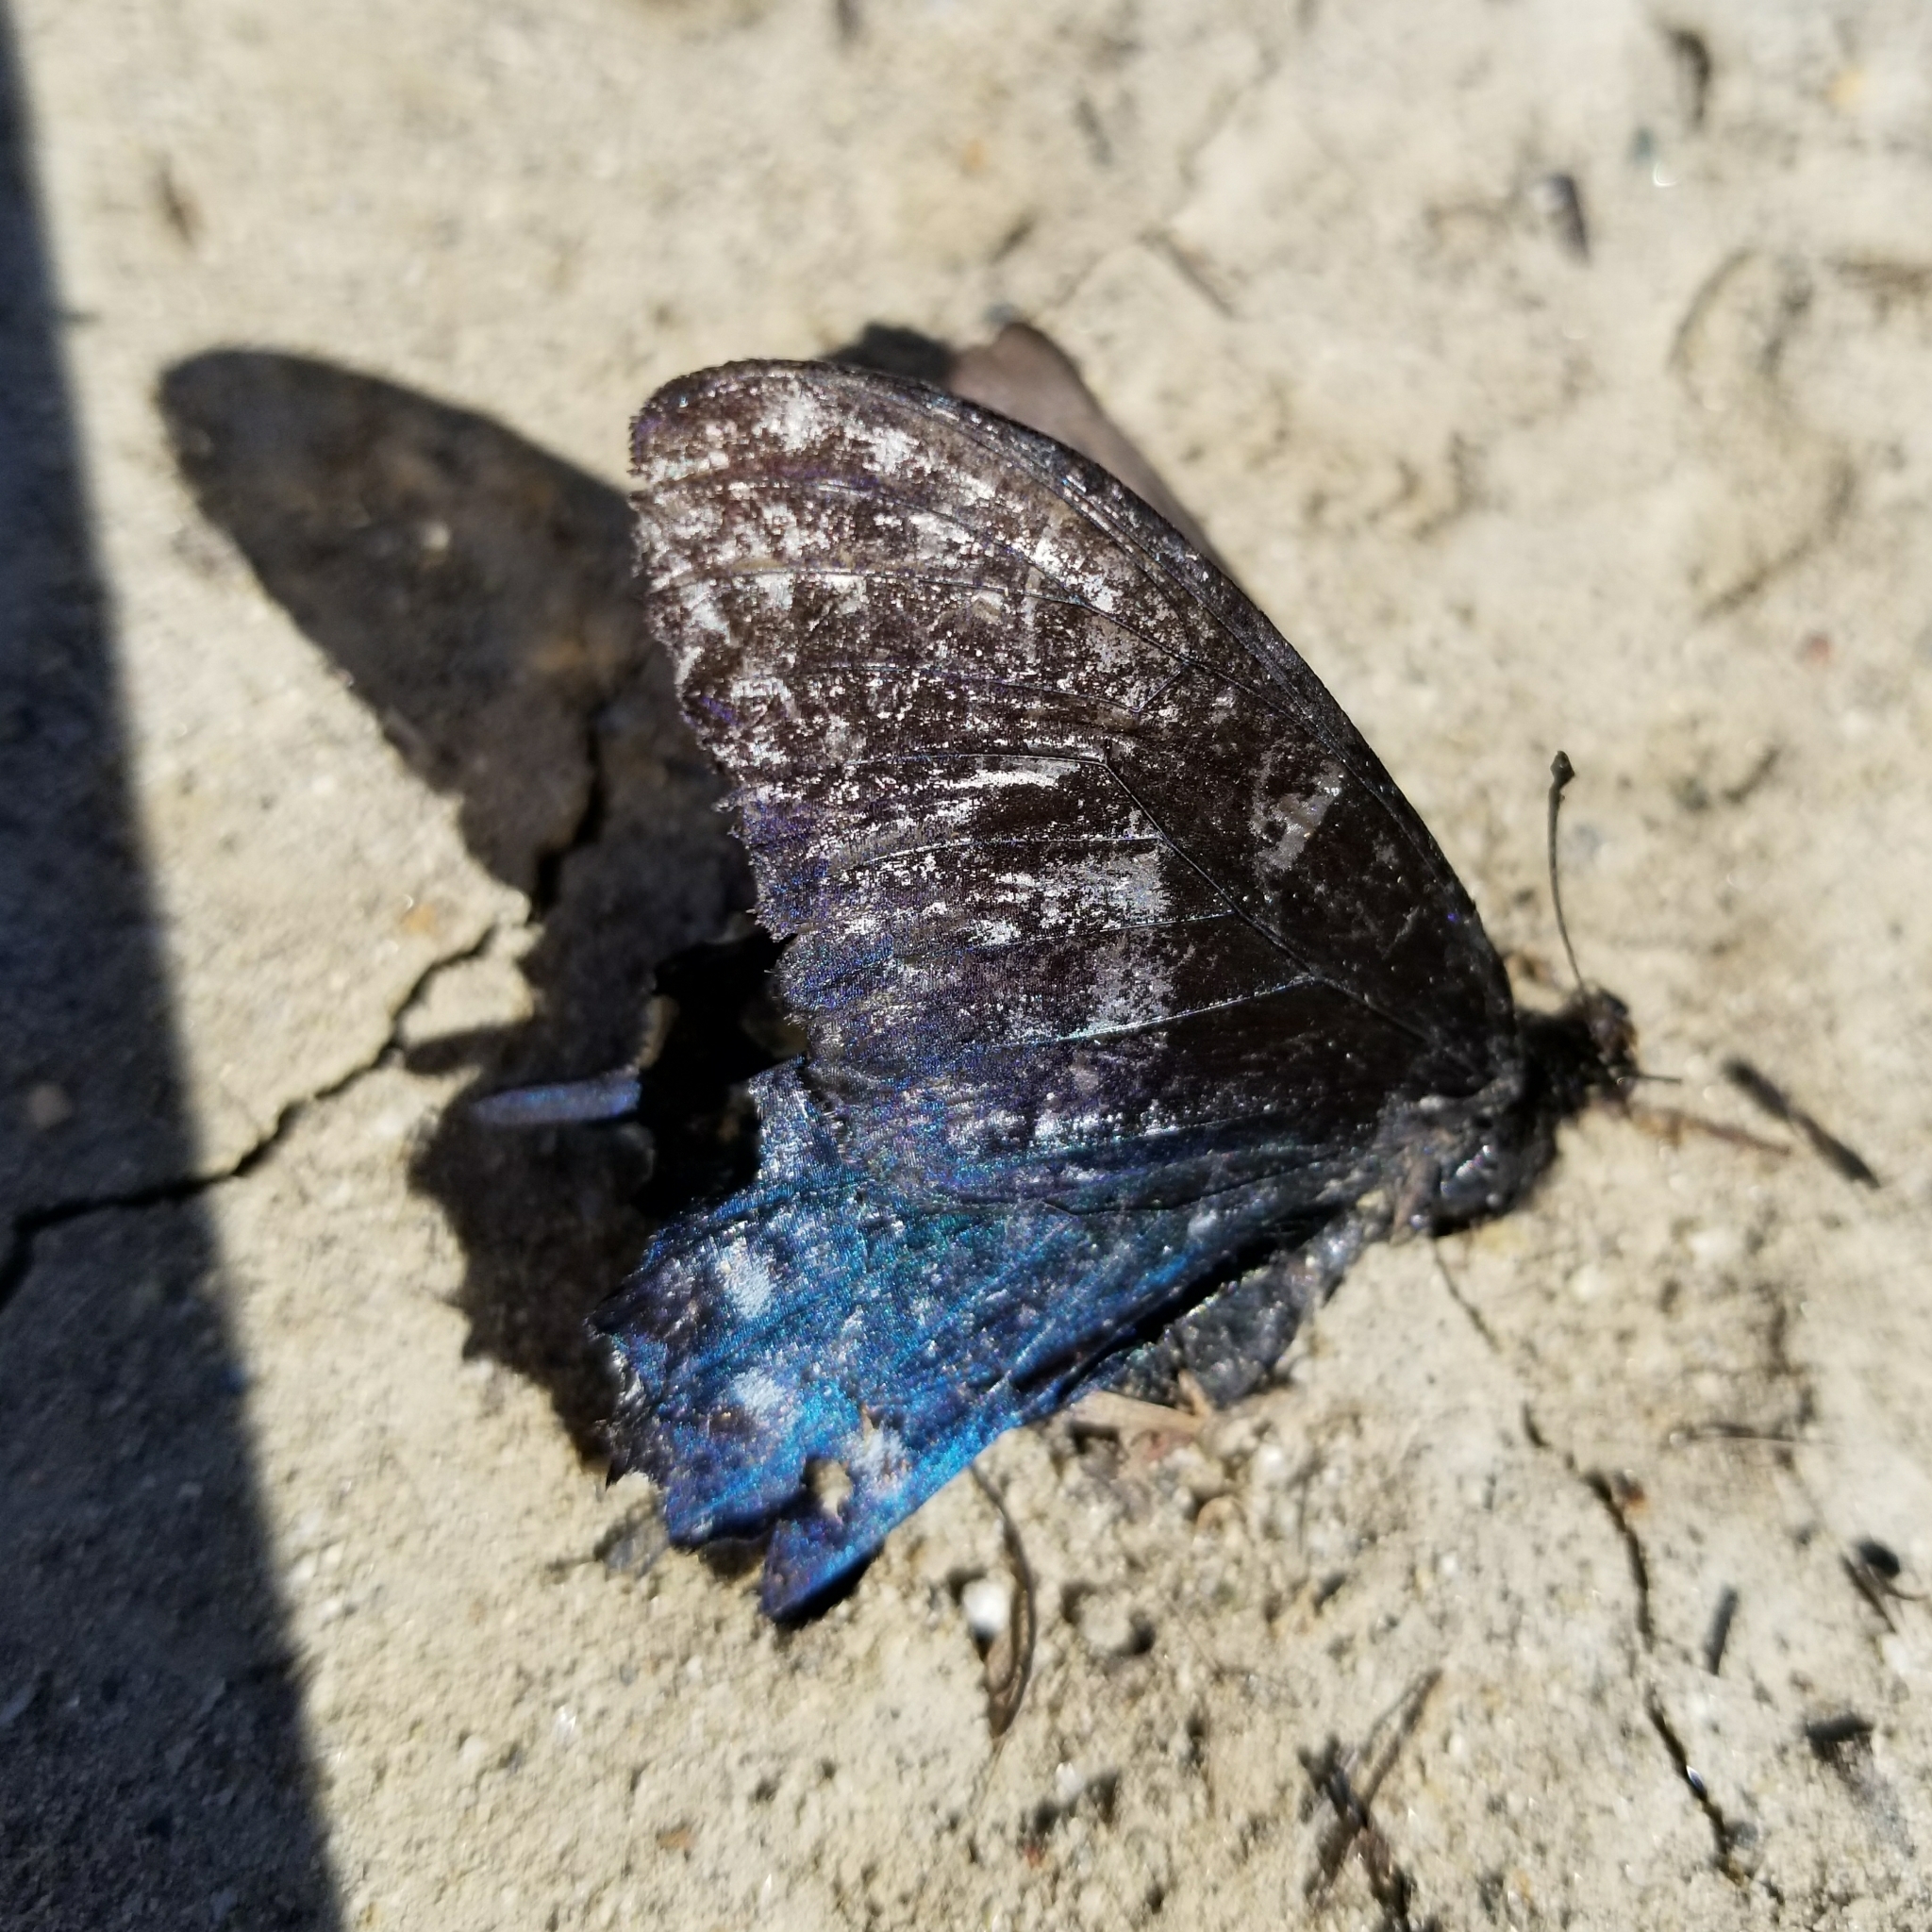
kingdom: Animalia
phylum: Arthropoda
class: Insecta
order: Lepidoptera
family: Papilionidae
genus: Battus
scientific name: Battus philenor
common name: Pipevine swallowtail
